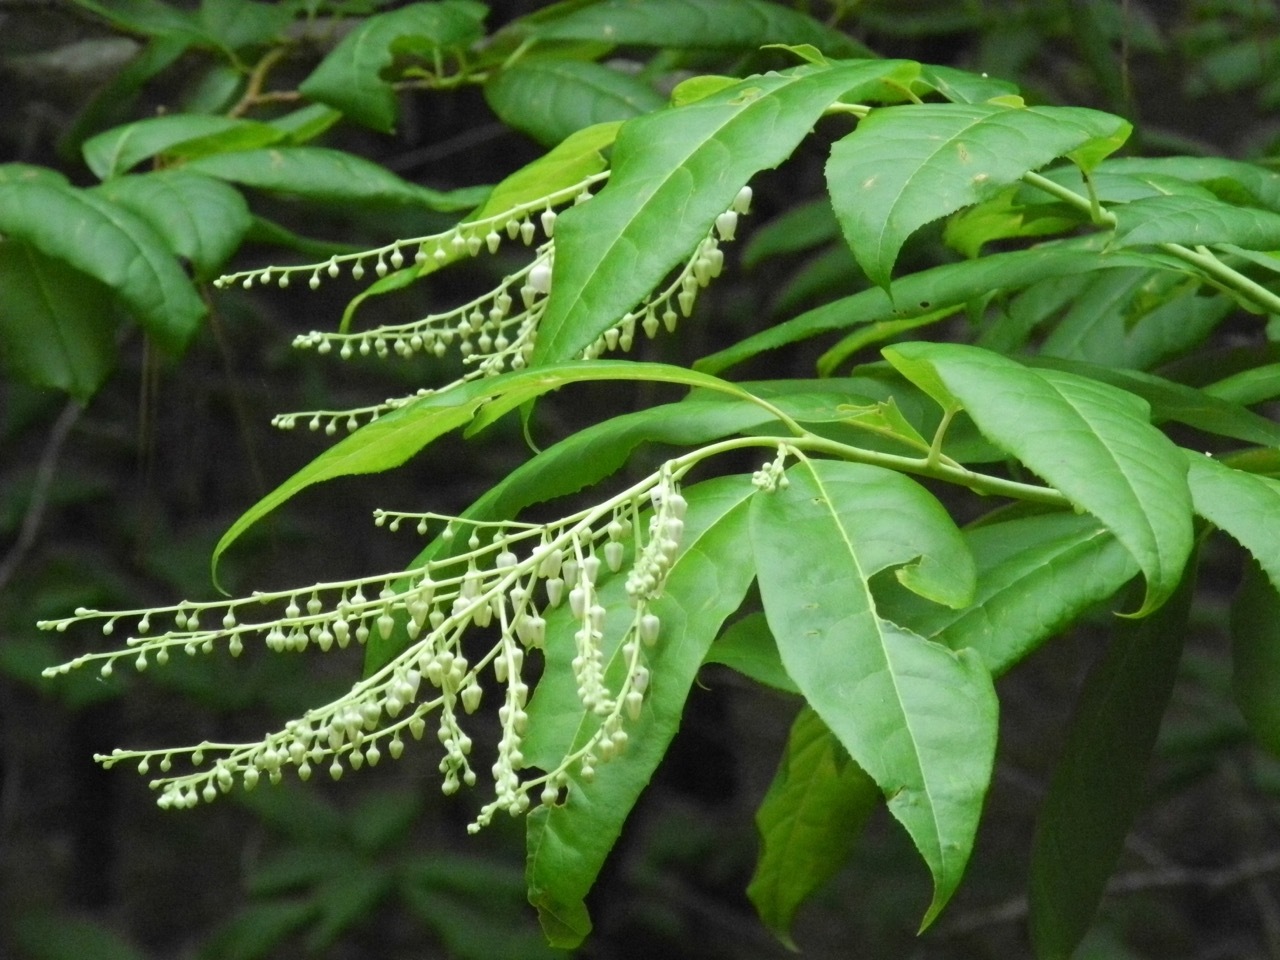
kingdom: Plantae
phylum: Tracheophyta
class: Magnoliopsida
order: Ericales
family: Ericaceae
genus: Oxydendrum
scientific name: Oxydendrum arboreum
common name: Sourwood
